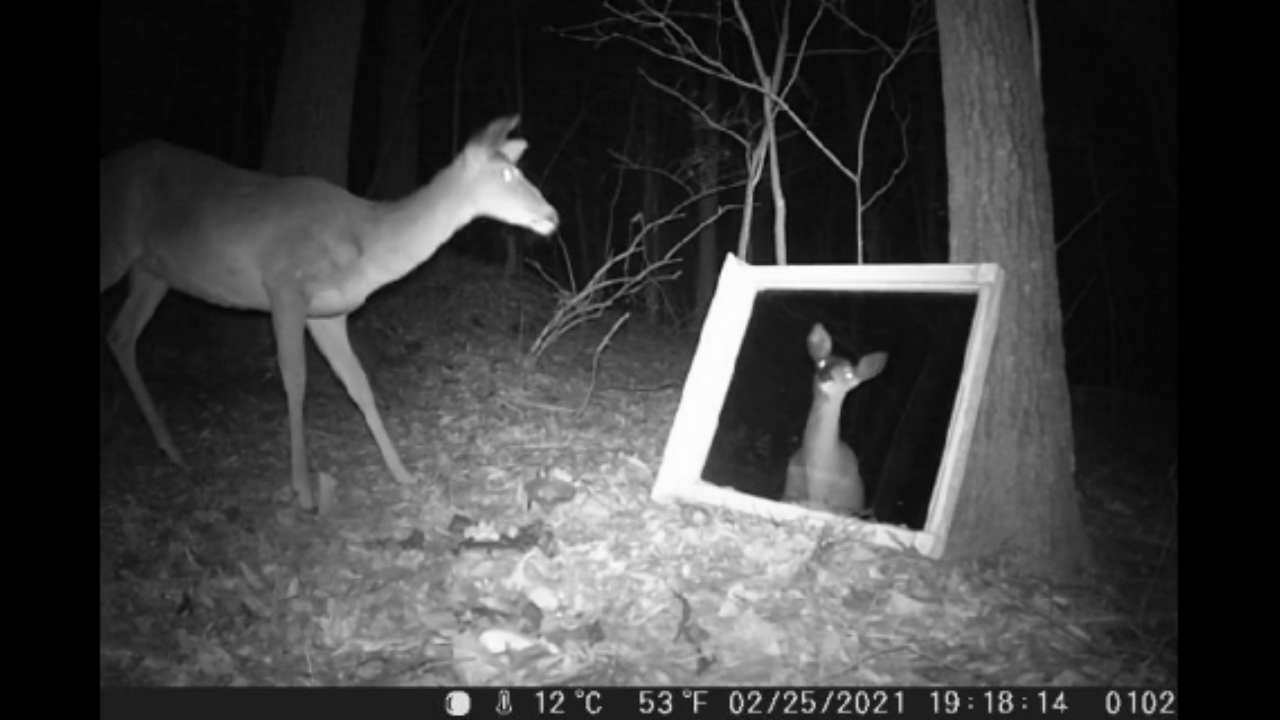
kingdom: Animalia
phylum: Chordata
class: Mammalia
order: Artiodactyla
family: Cervidae
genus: Odocoileus
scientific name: Odocoileus virginianus
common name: White-tailed deer
